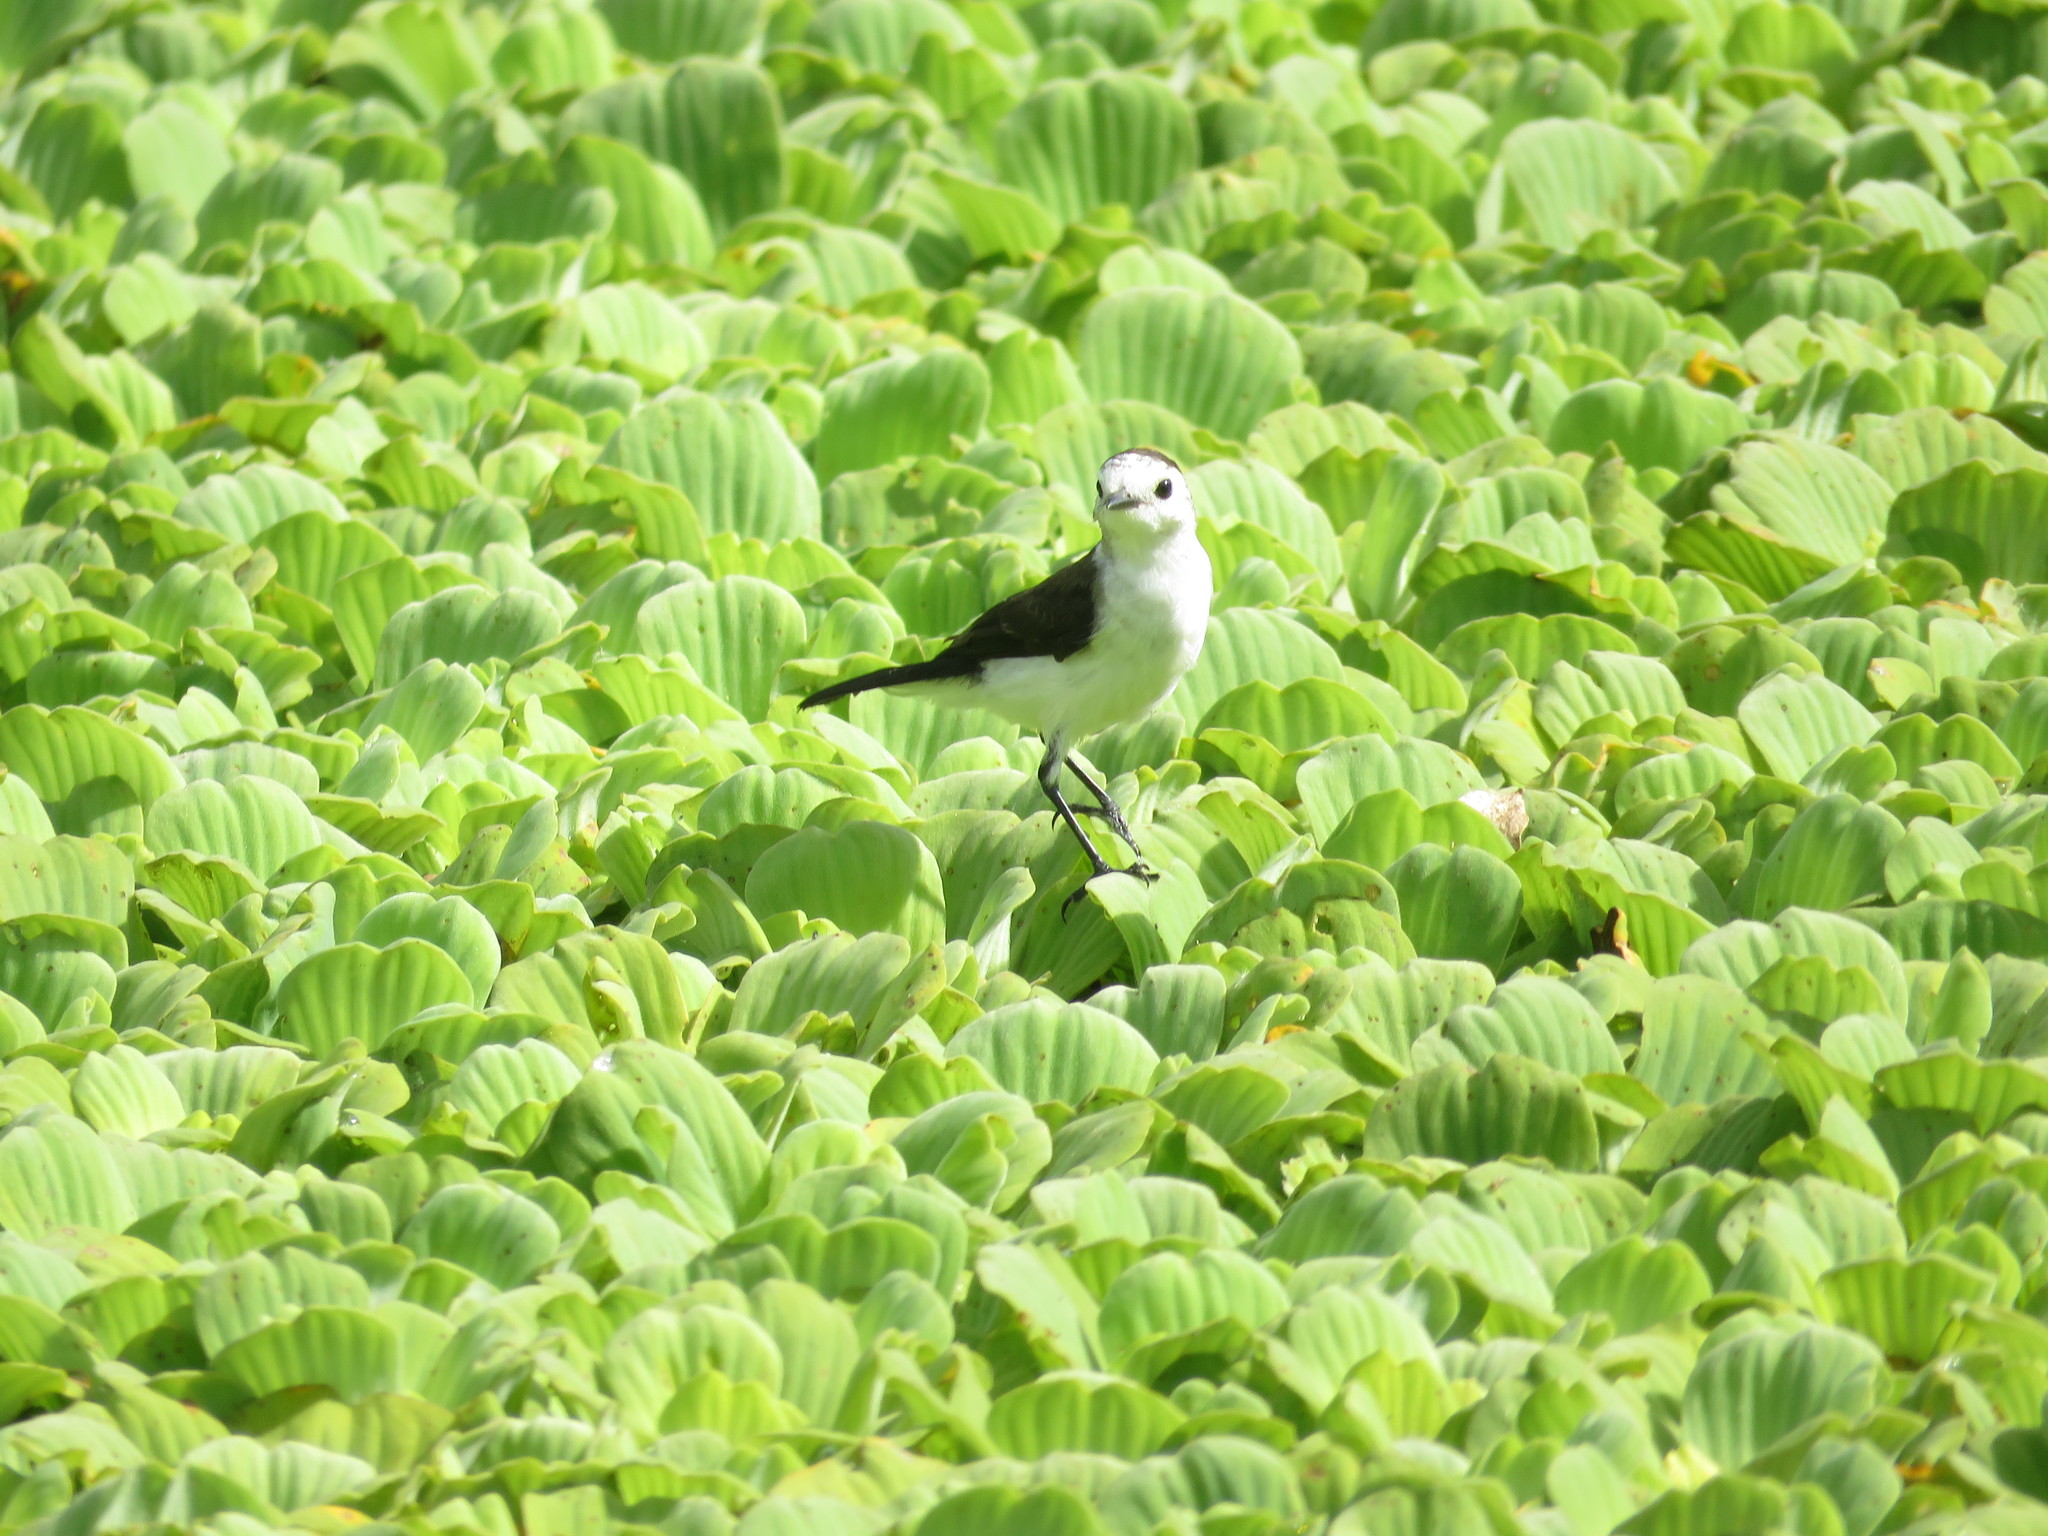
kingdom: Animalia
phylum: Chordata
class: Aves
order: Passeriformes
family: Tyrannidae
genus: Fluvicola
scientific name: Fluvicola pica
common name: Pied water-tyrant
